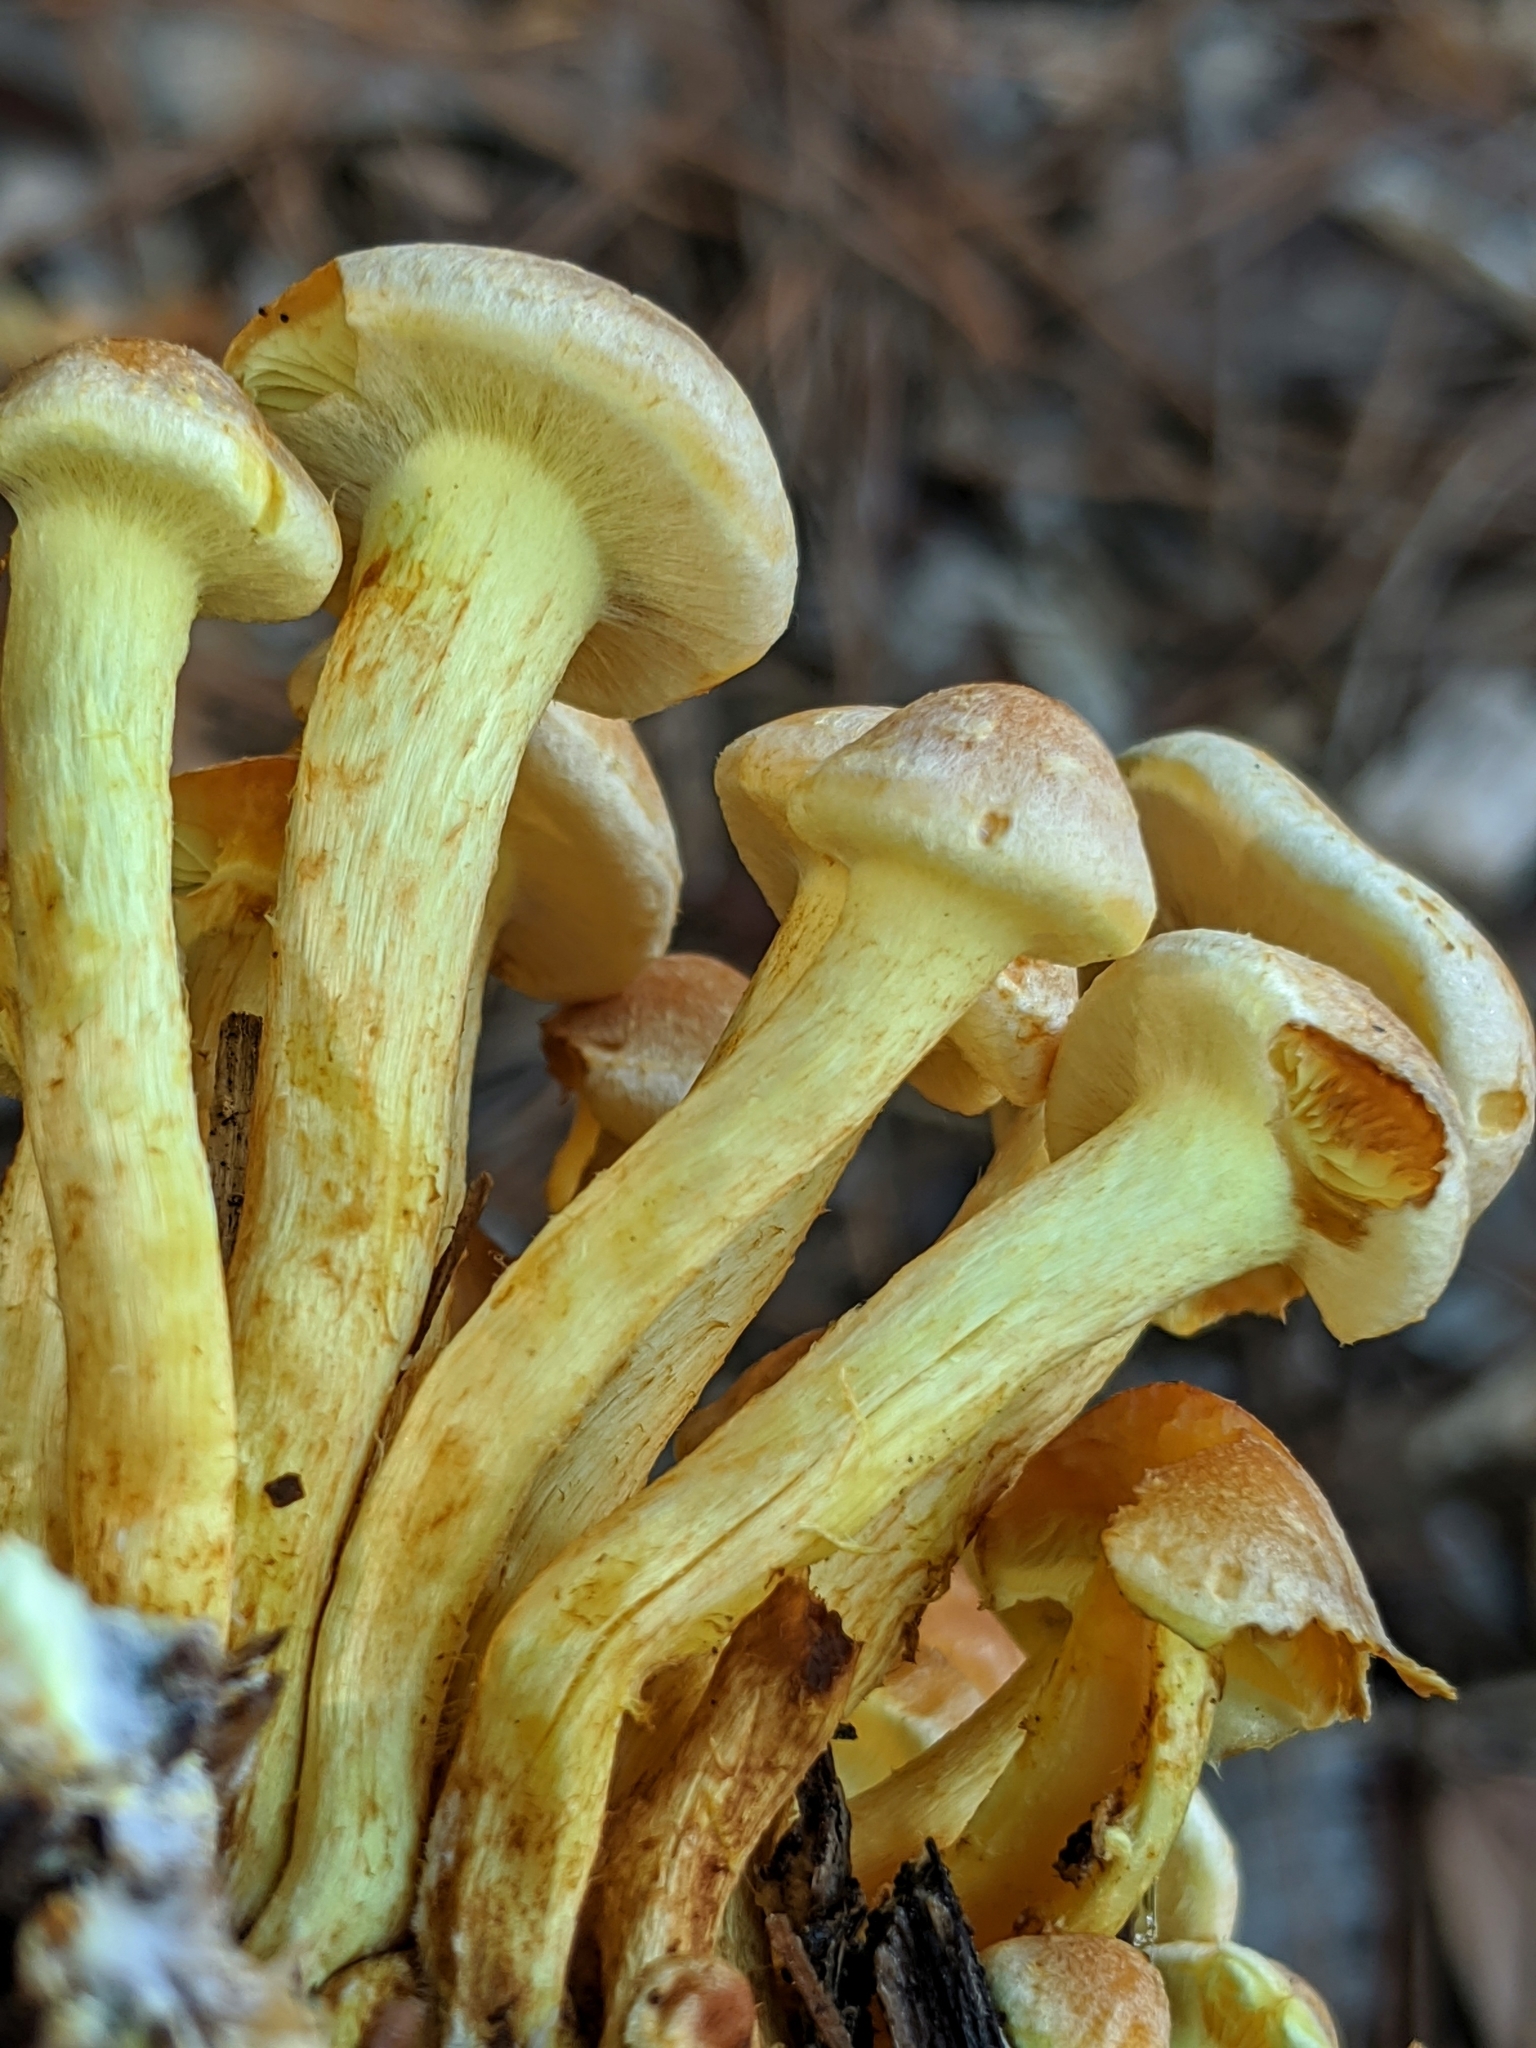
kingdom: Fungi
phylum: Basidiomycota
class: Agaricomycetes
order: Agaricales
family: Strophariaceae
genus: Hypholoma
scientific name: Hypholoma fasciculare
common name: Sulphur tuft
